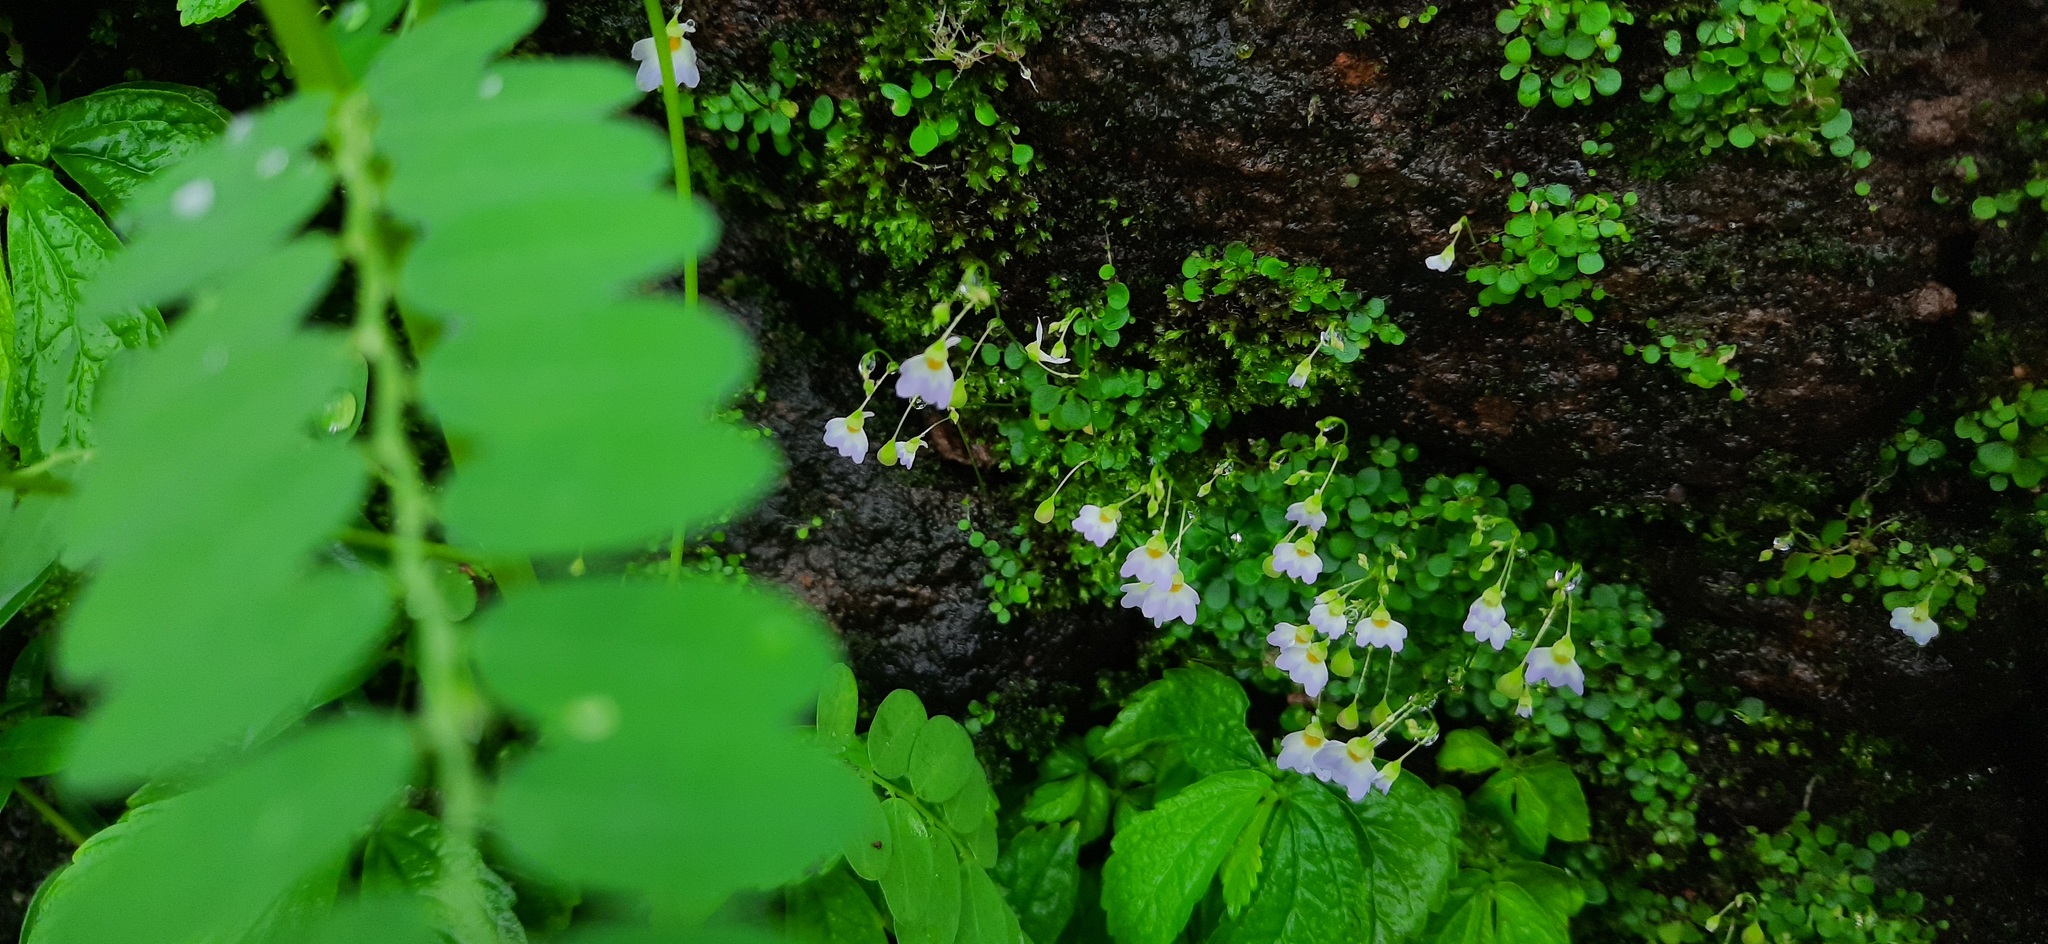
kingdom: Plantae
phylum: Tracheophyta
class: Magnoliopsida
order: Lamiales
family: Lentibulariaceae
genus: Utricularia
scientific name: Utricularia striatula
